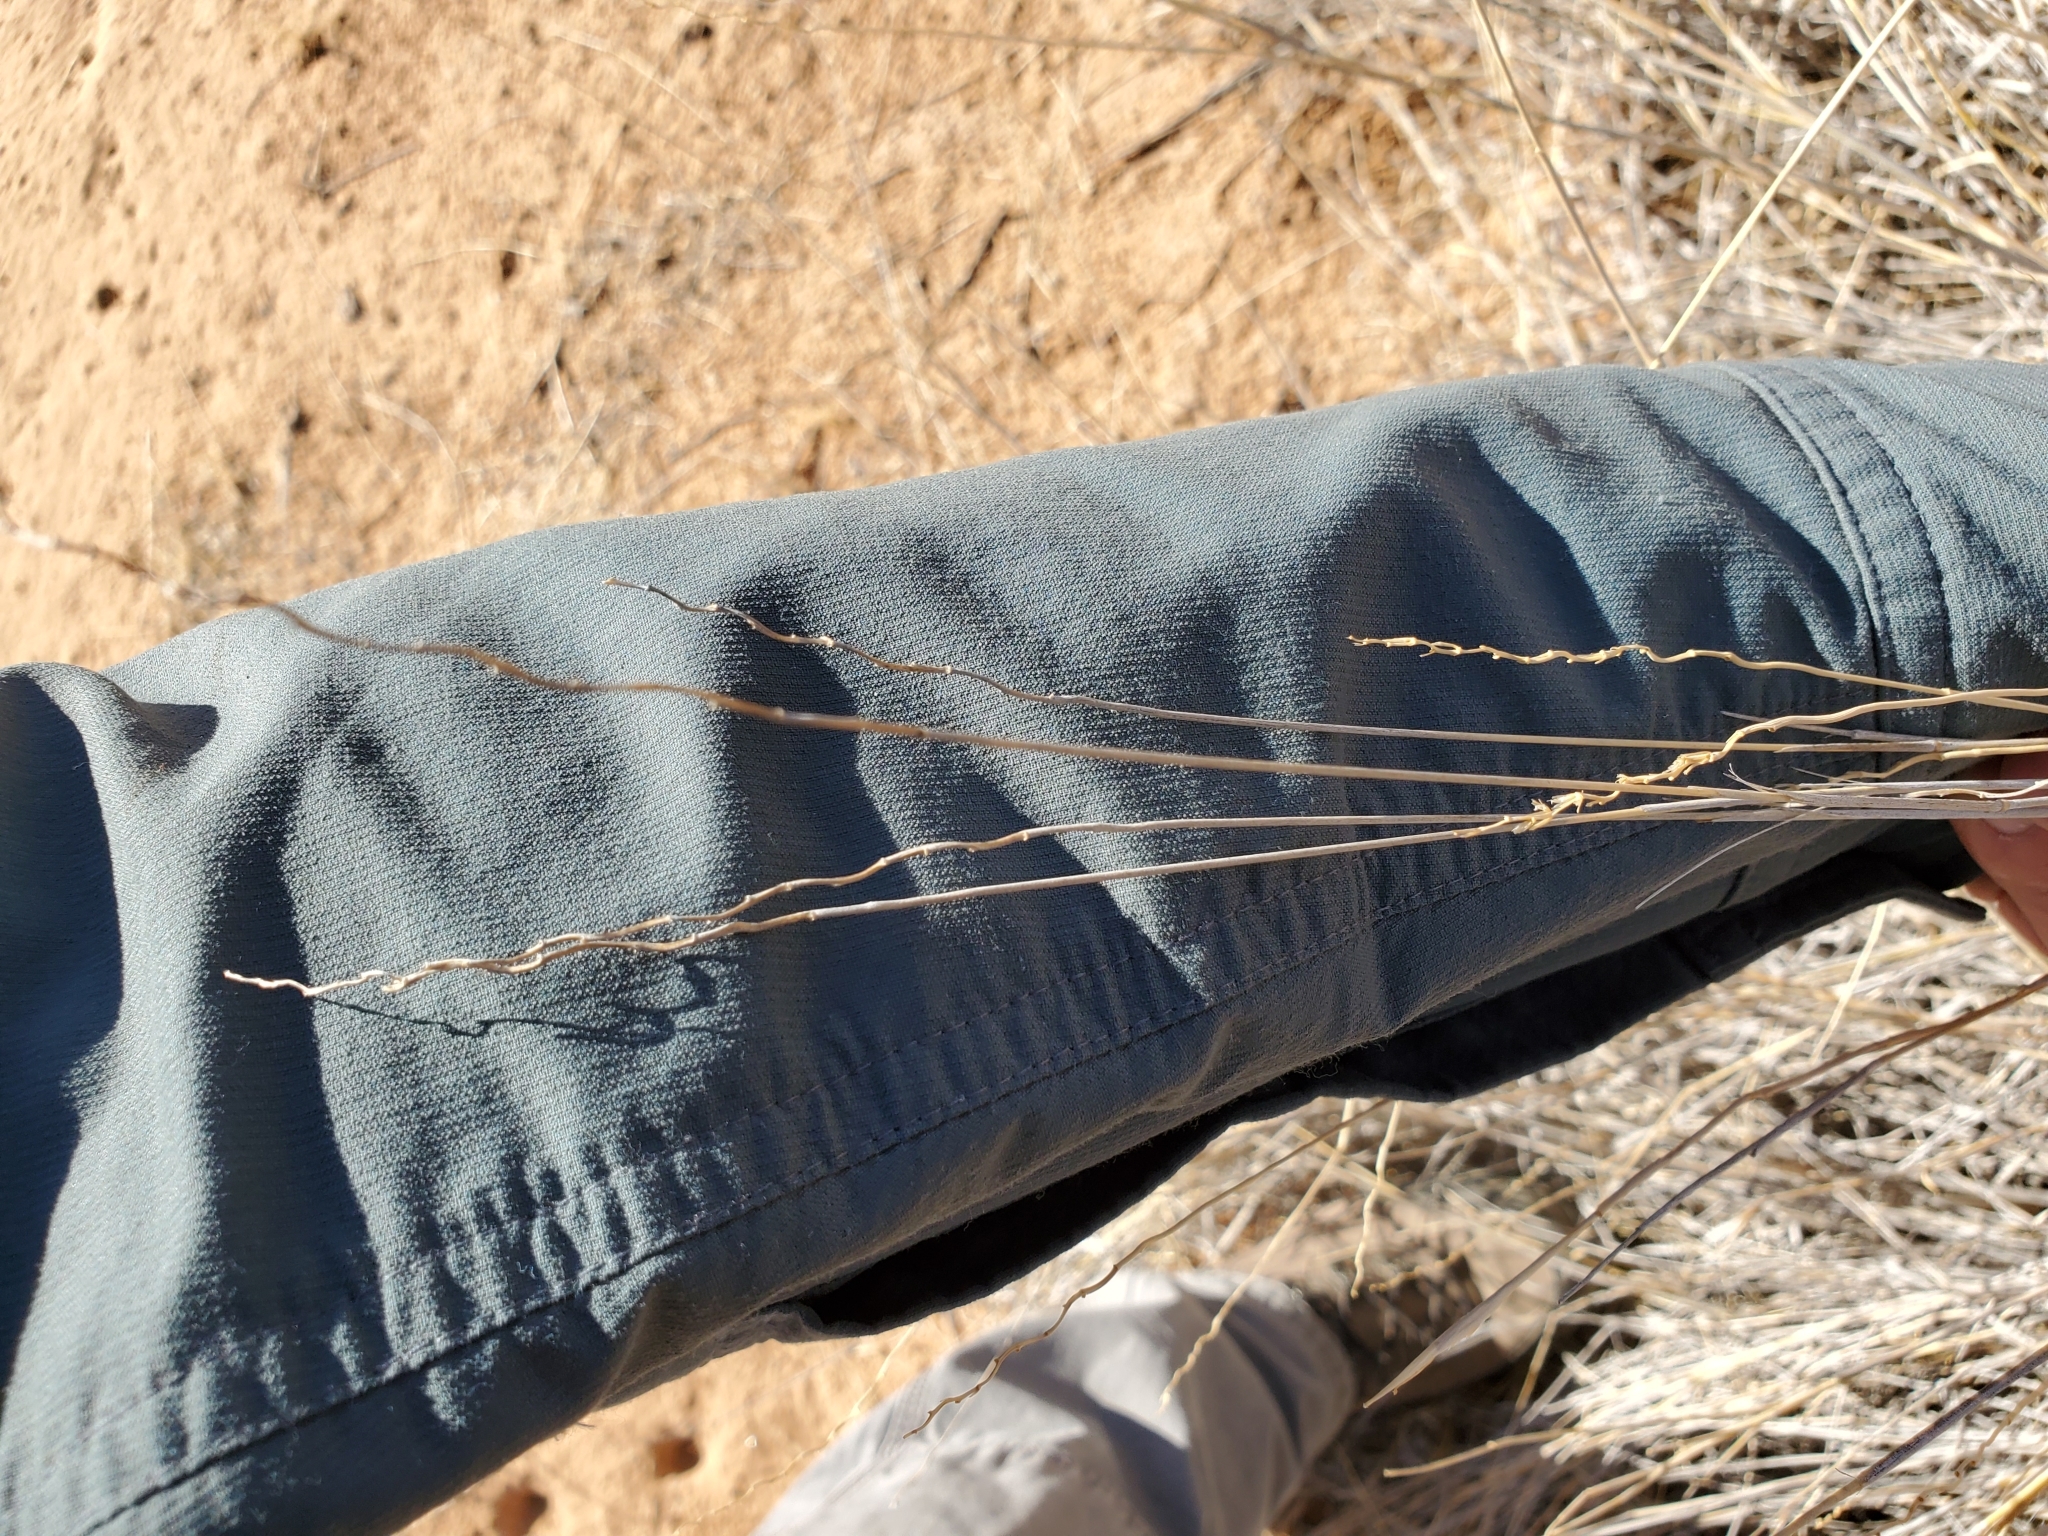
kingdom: Plantae
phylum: Tracheophyta
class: Liliopsida
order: Poales
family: Poaceae
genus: Hilaria
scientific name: Hilaria rigida
